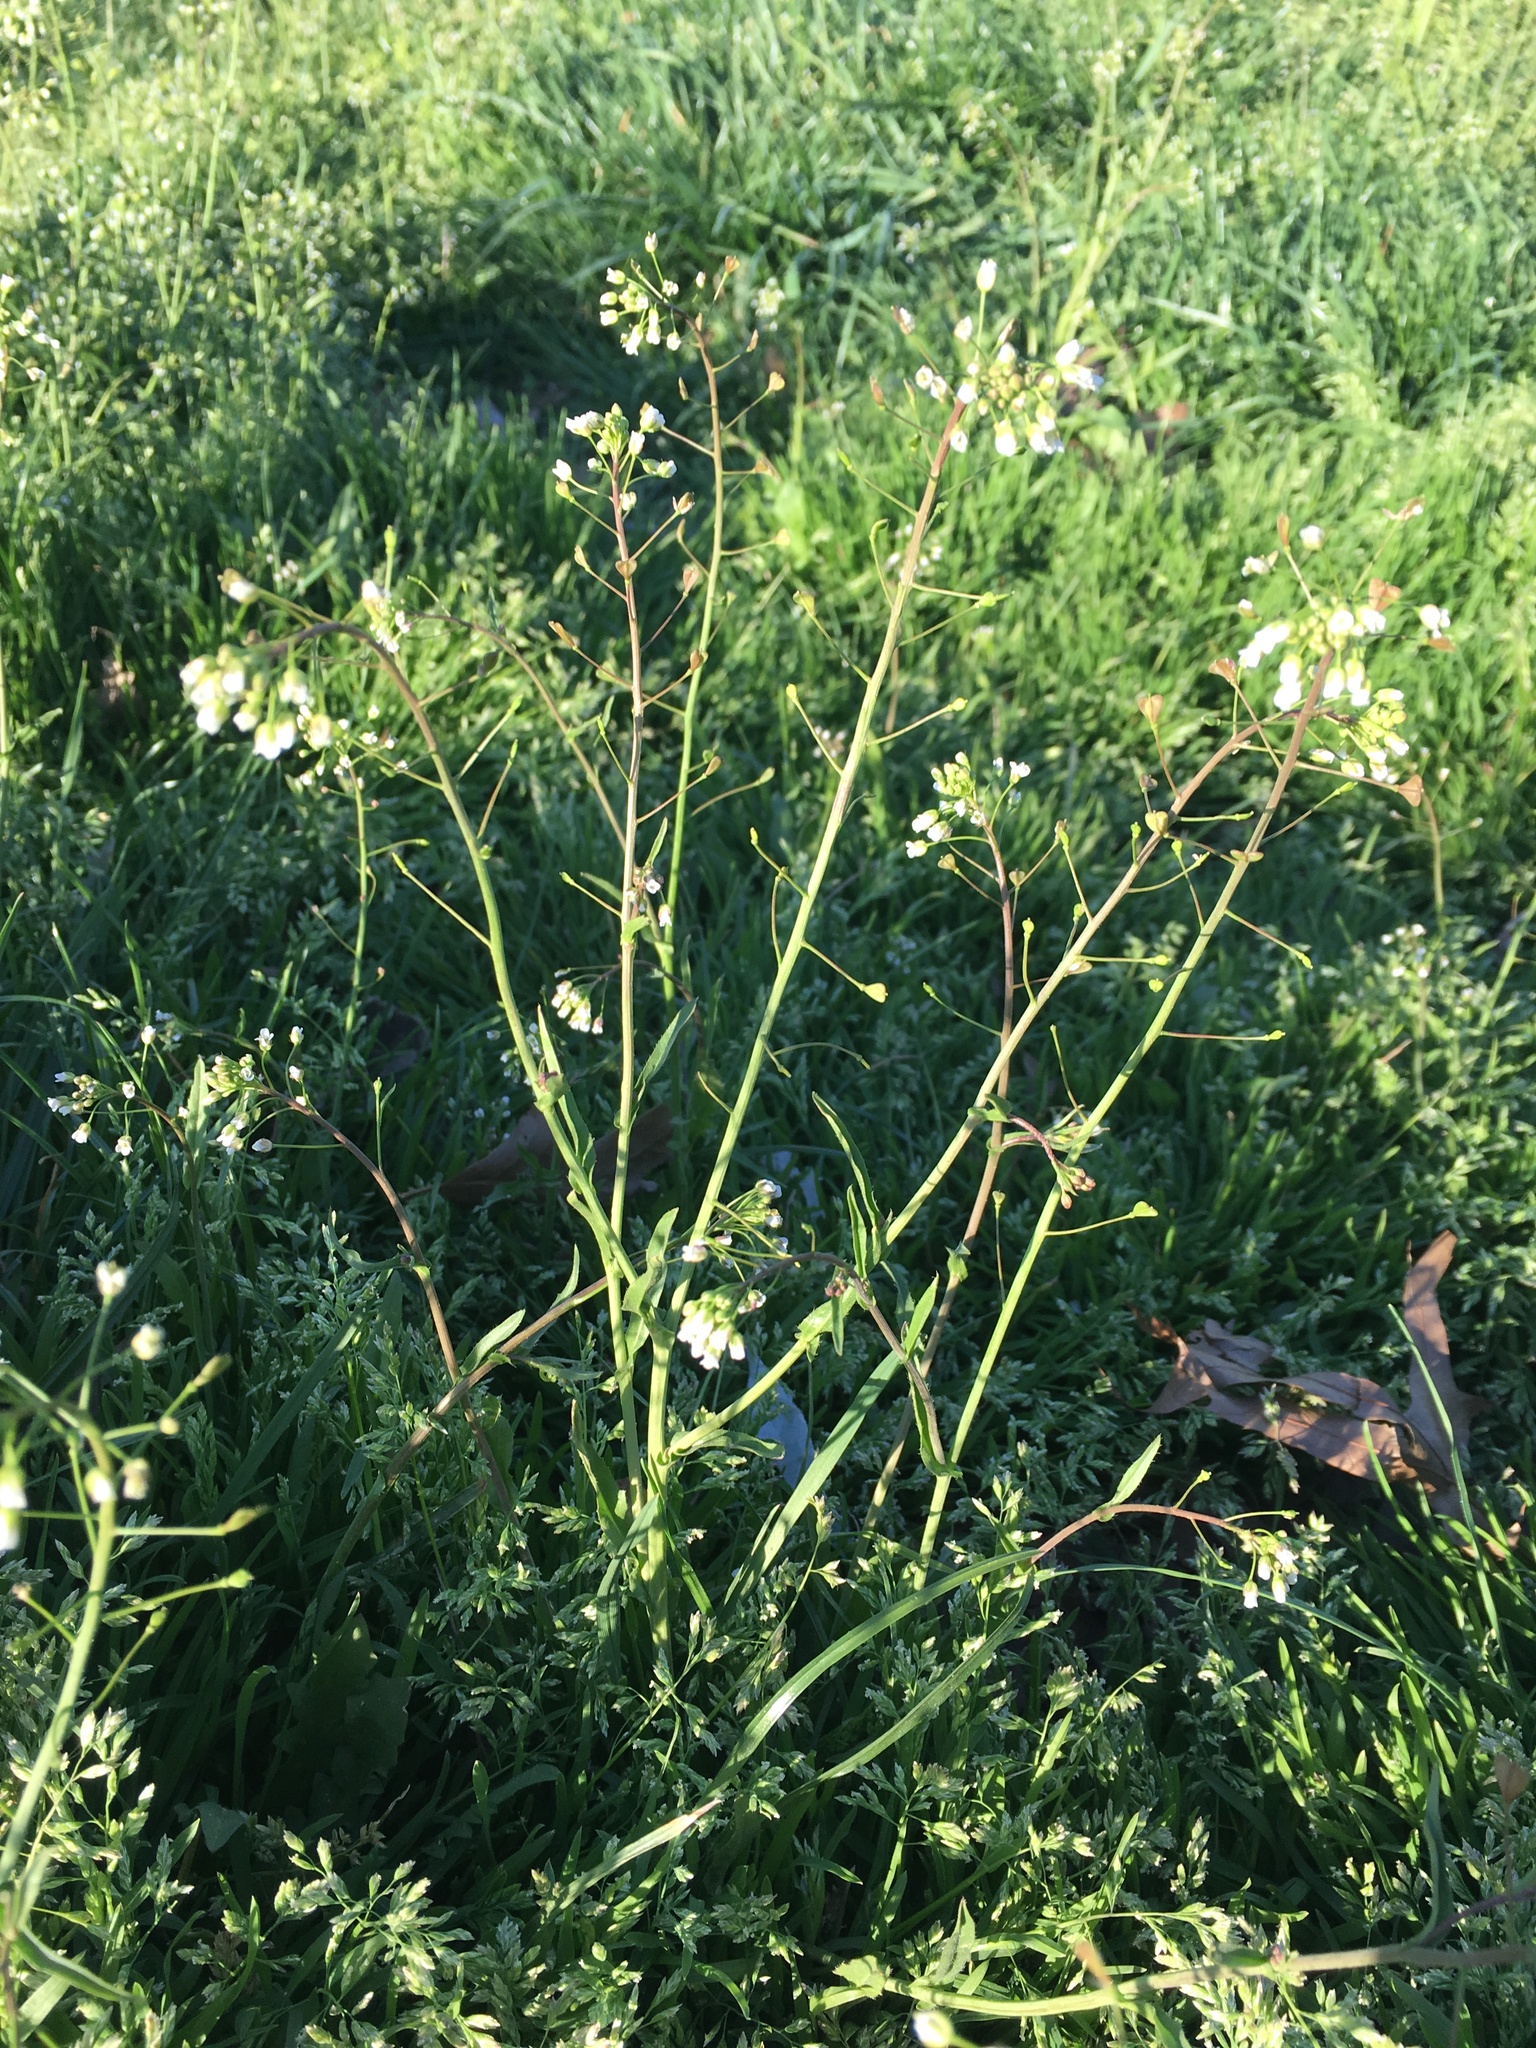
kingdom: Plantae
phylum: Tracheophyta
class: Magnoliopsida
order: Brassicales
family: Brassicaceae
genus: Capsella
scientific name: Capsella bursa-pastoris
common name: Shepherd's purse
